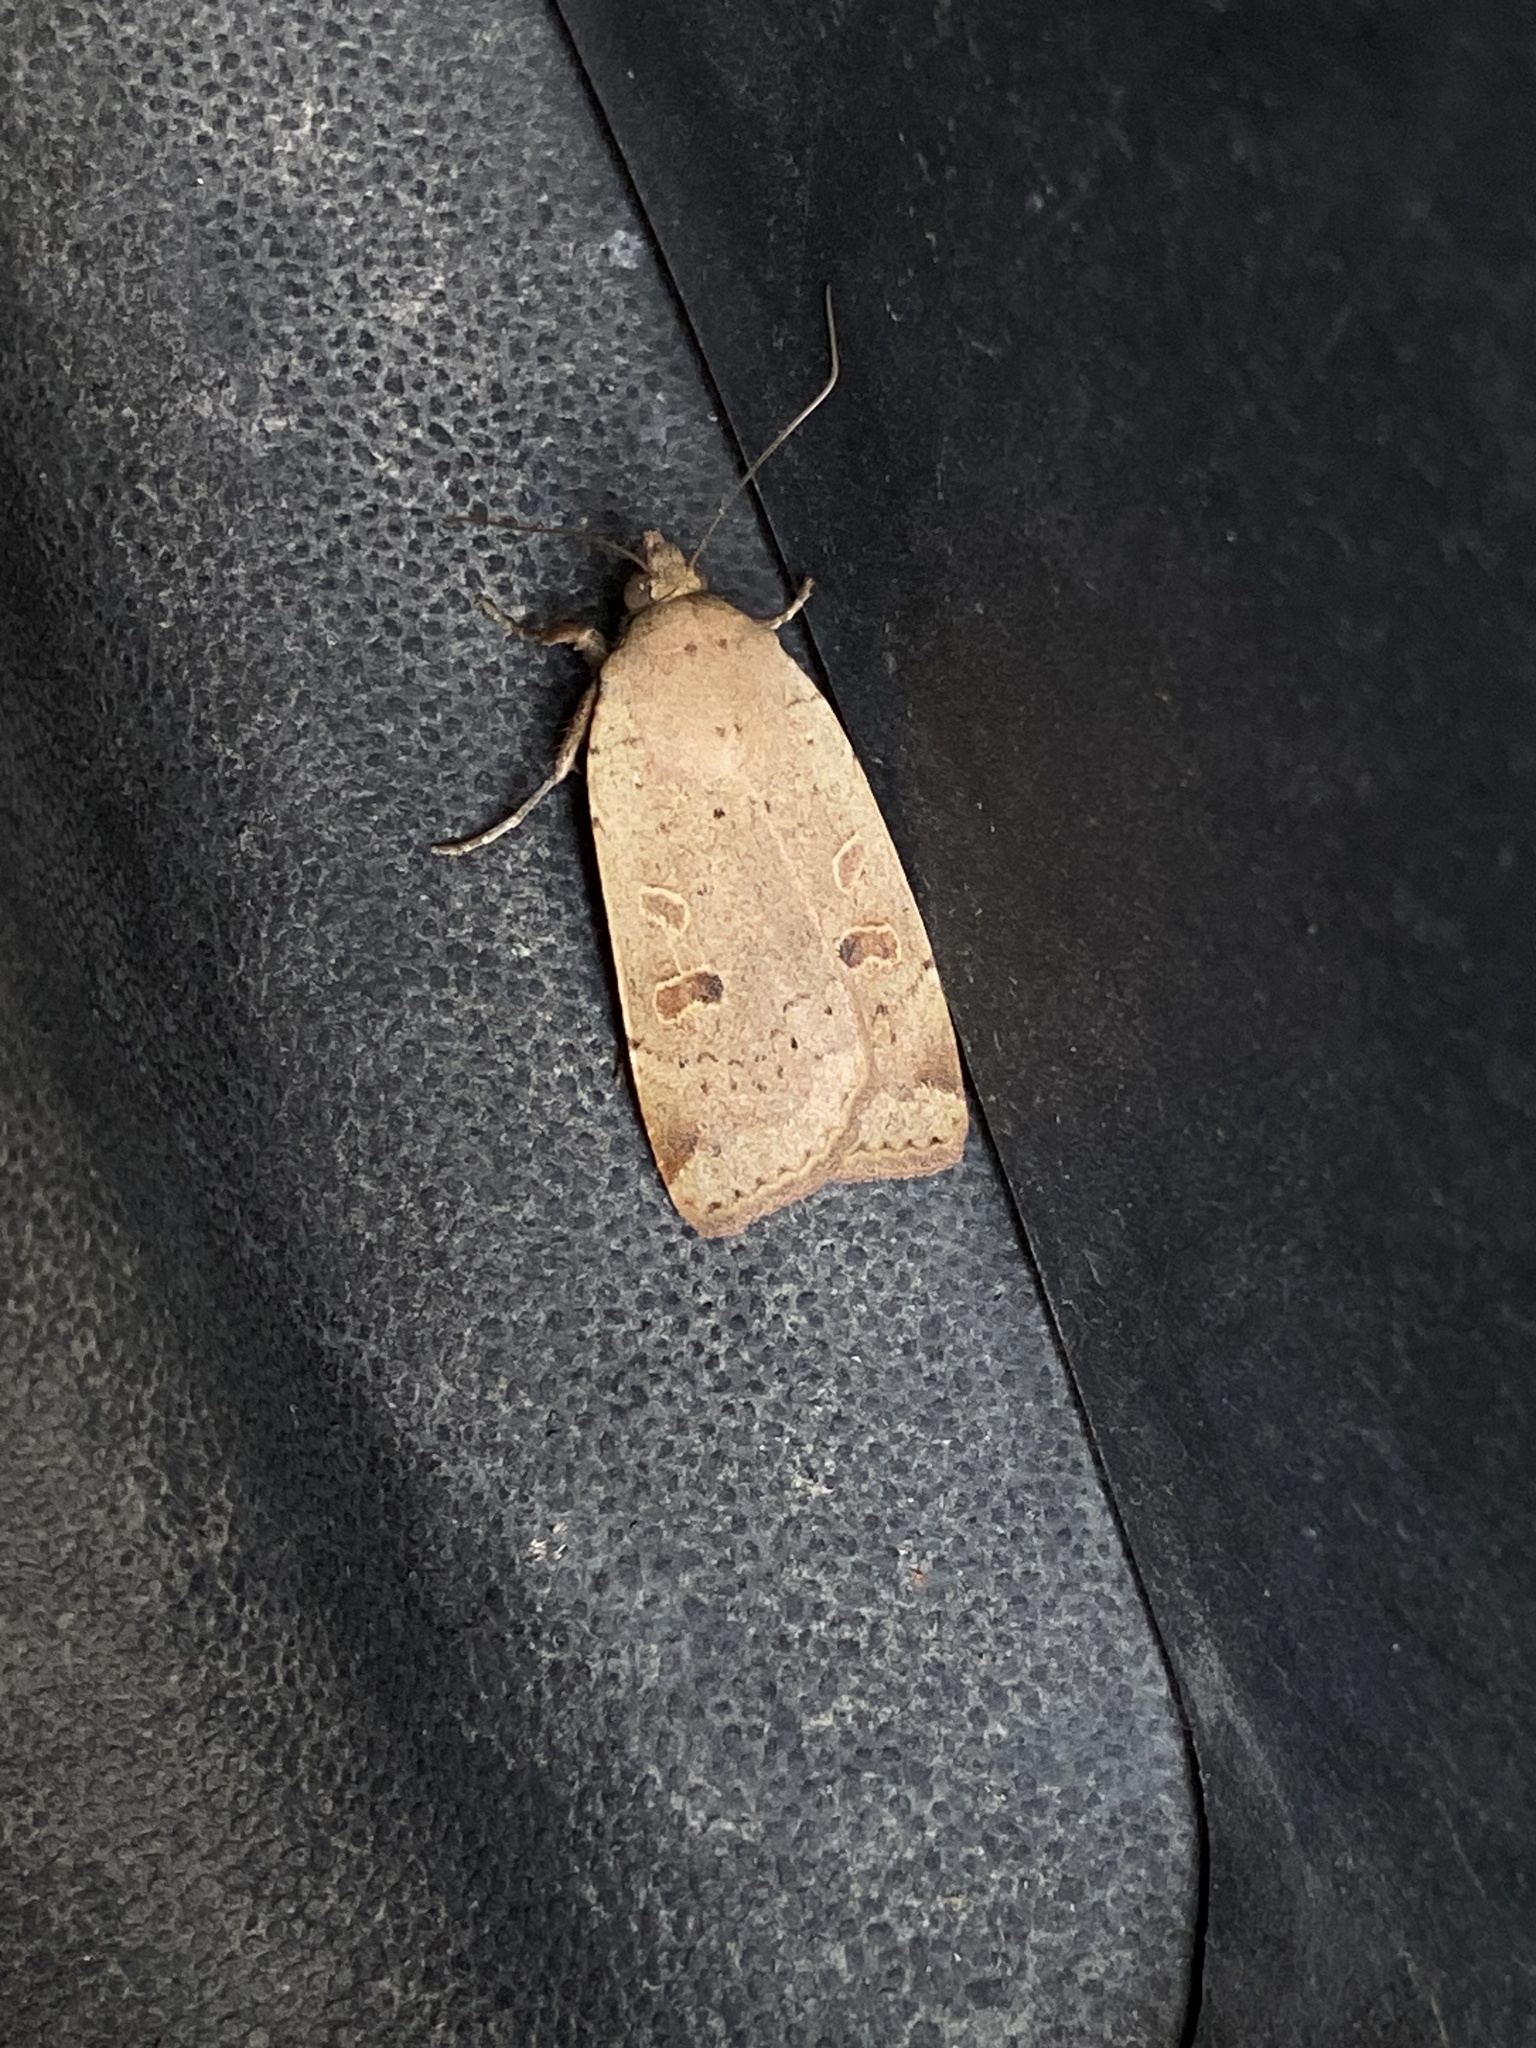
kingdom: Animalia
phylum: Arthropoda
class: Insecta
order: Lepidoptera
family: Noctuidae
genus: Noctua
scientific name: Noctua comes
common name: Lesser yellow underwing
